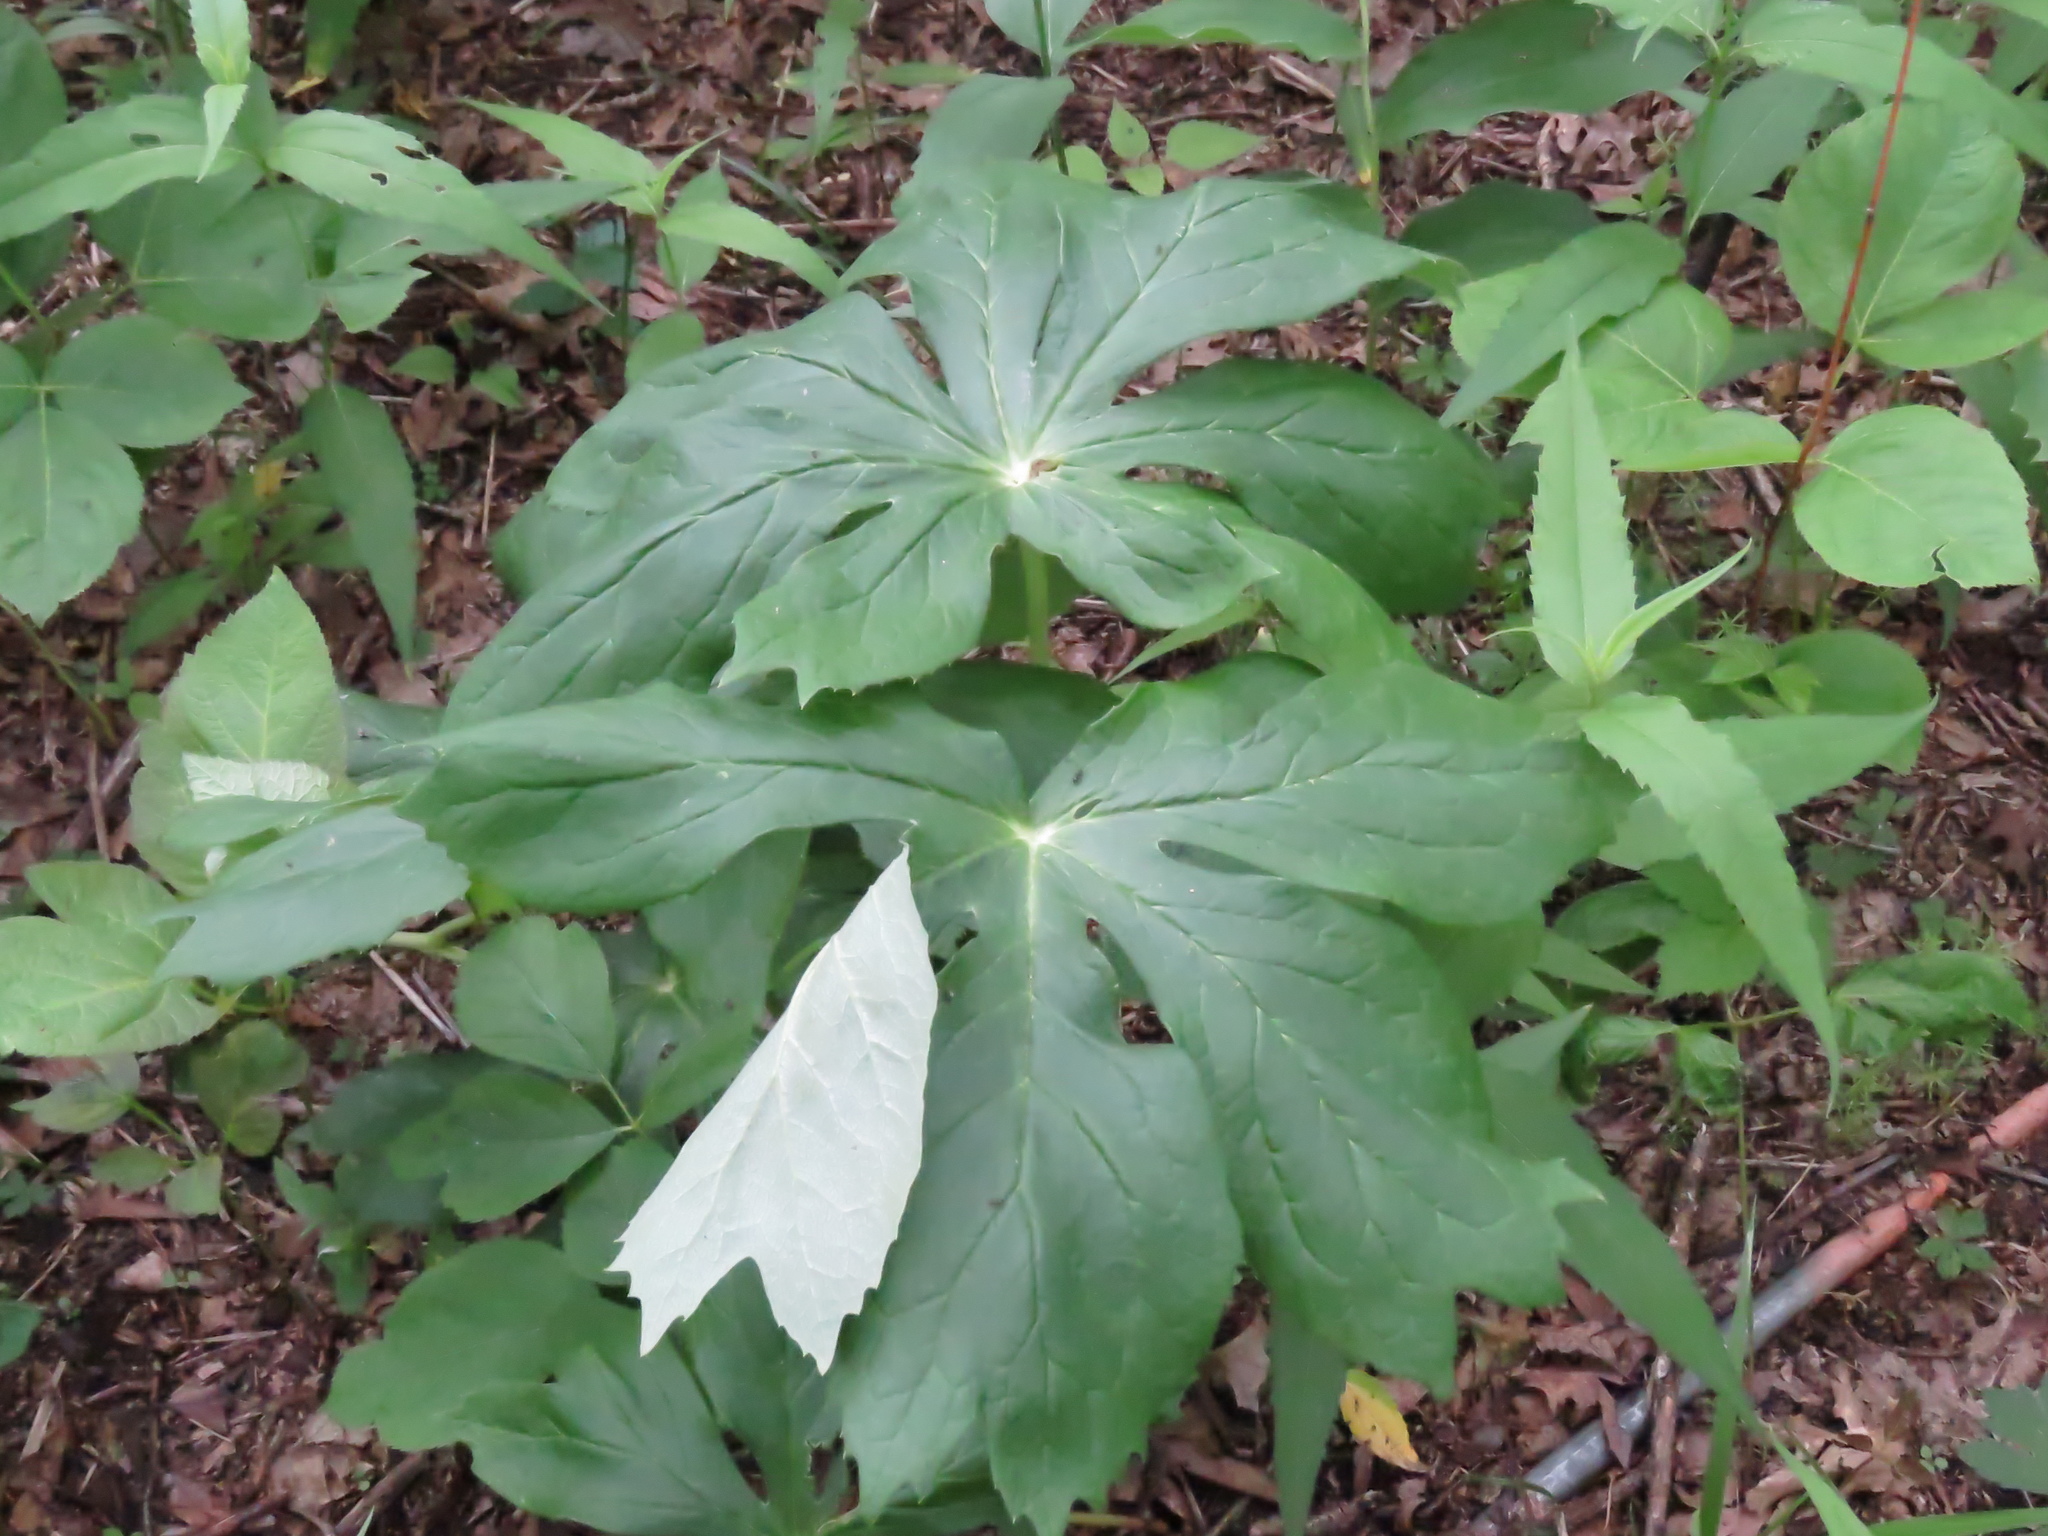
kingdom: Plantae
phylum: Tracheophyta
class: Magnoliopsida
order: Ranunculales
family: Berberidaceae
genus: Podophyllum
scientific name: Podophyllum peltatum
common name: Wild mandrake
